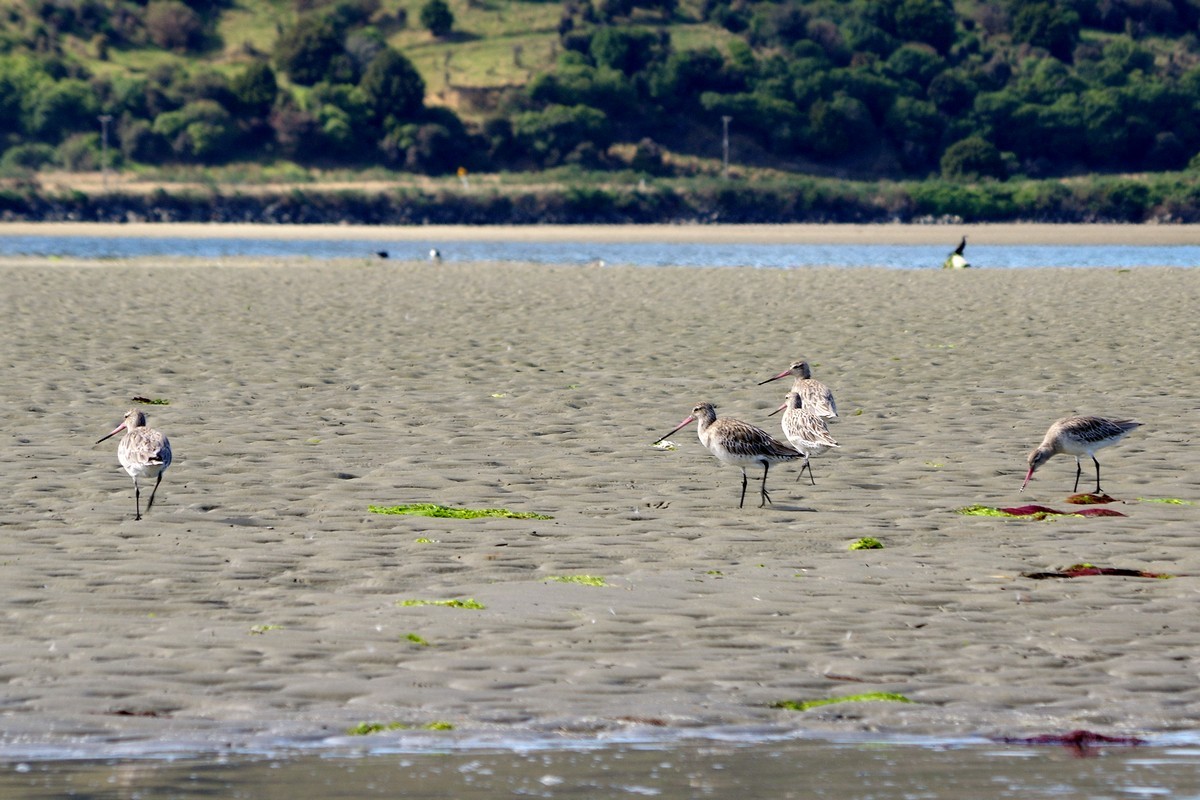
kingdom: Animalia
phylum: Chordata
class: Aves
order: Charadriiformes
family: Scolopacidae
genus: Limosa
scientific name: Limosa lapponica
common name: Bar-tailed godwit
